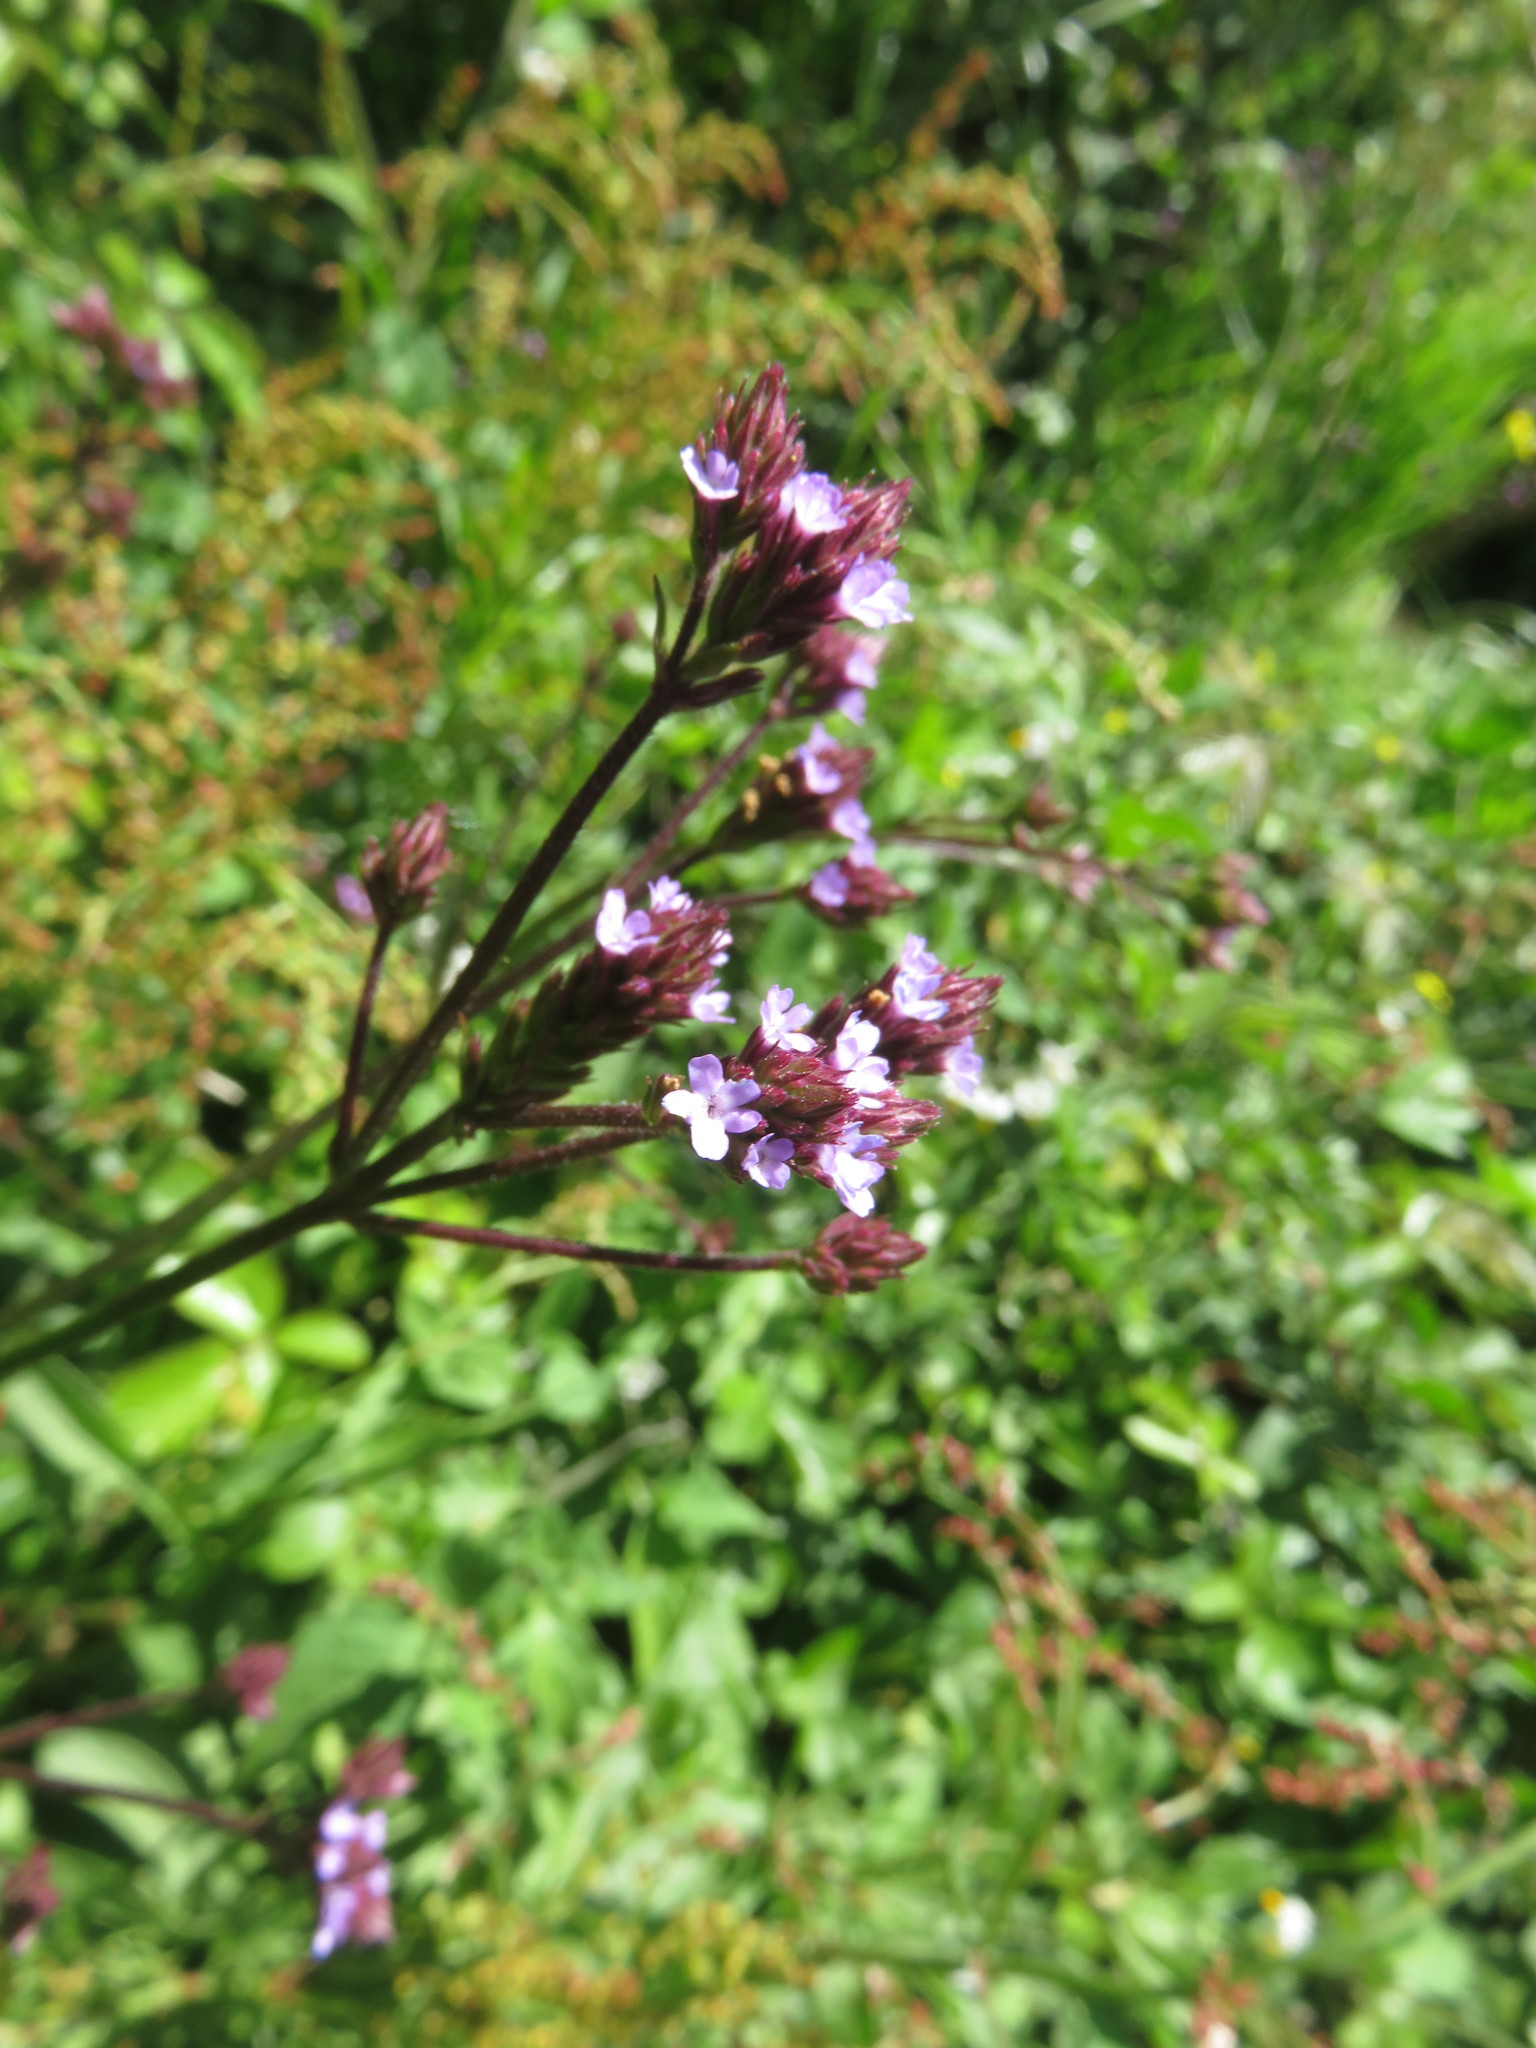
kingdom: Plantae
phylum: Tracheophyta
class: Magnoliopsida
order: Lamiales
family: Verbenaceae
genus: Verbena
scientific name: Verbena litoralis
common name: Seashore vervain
